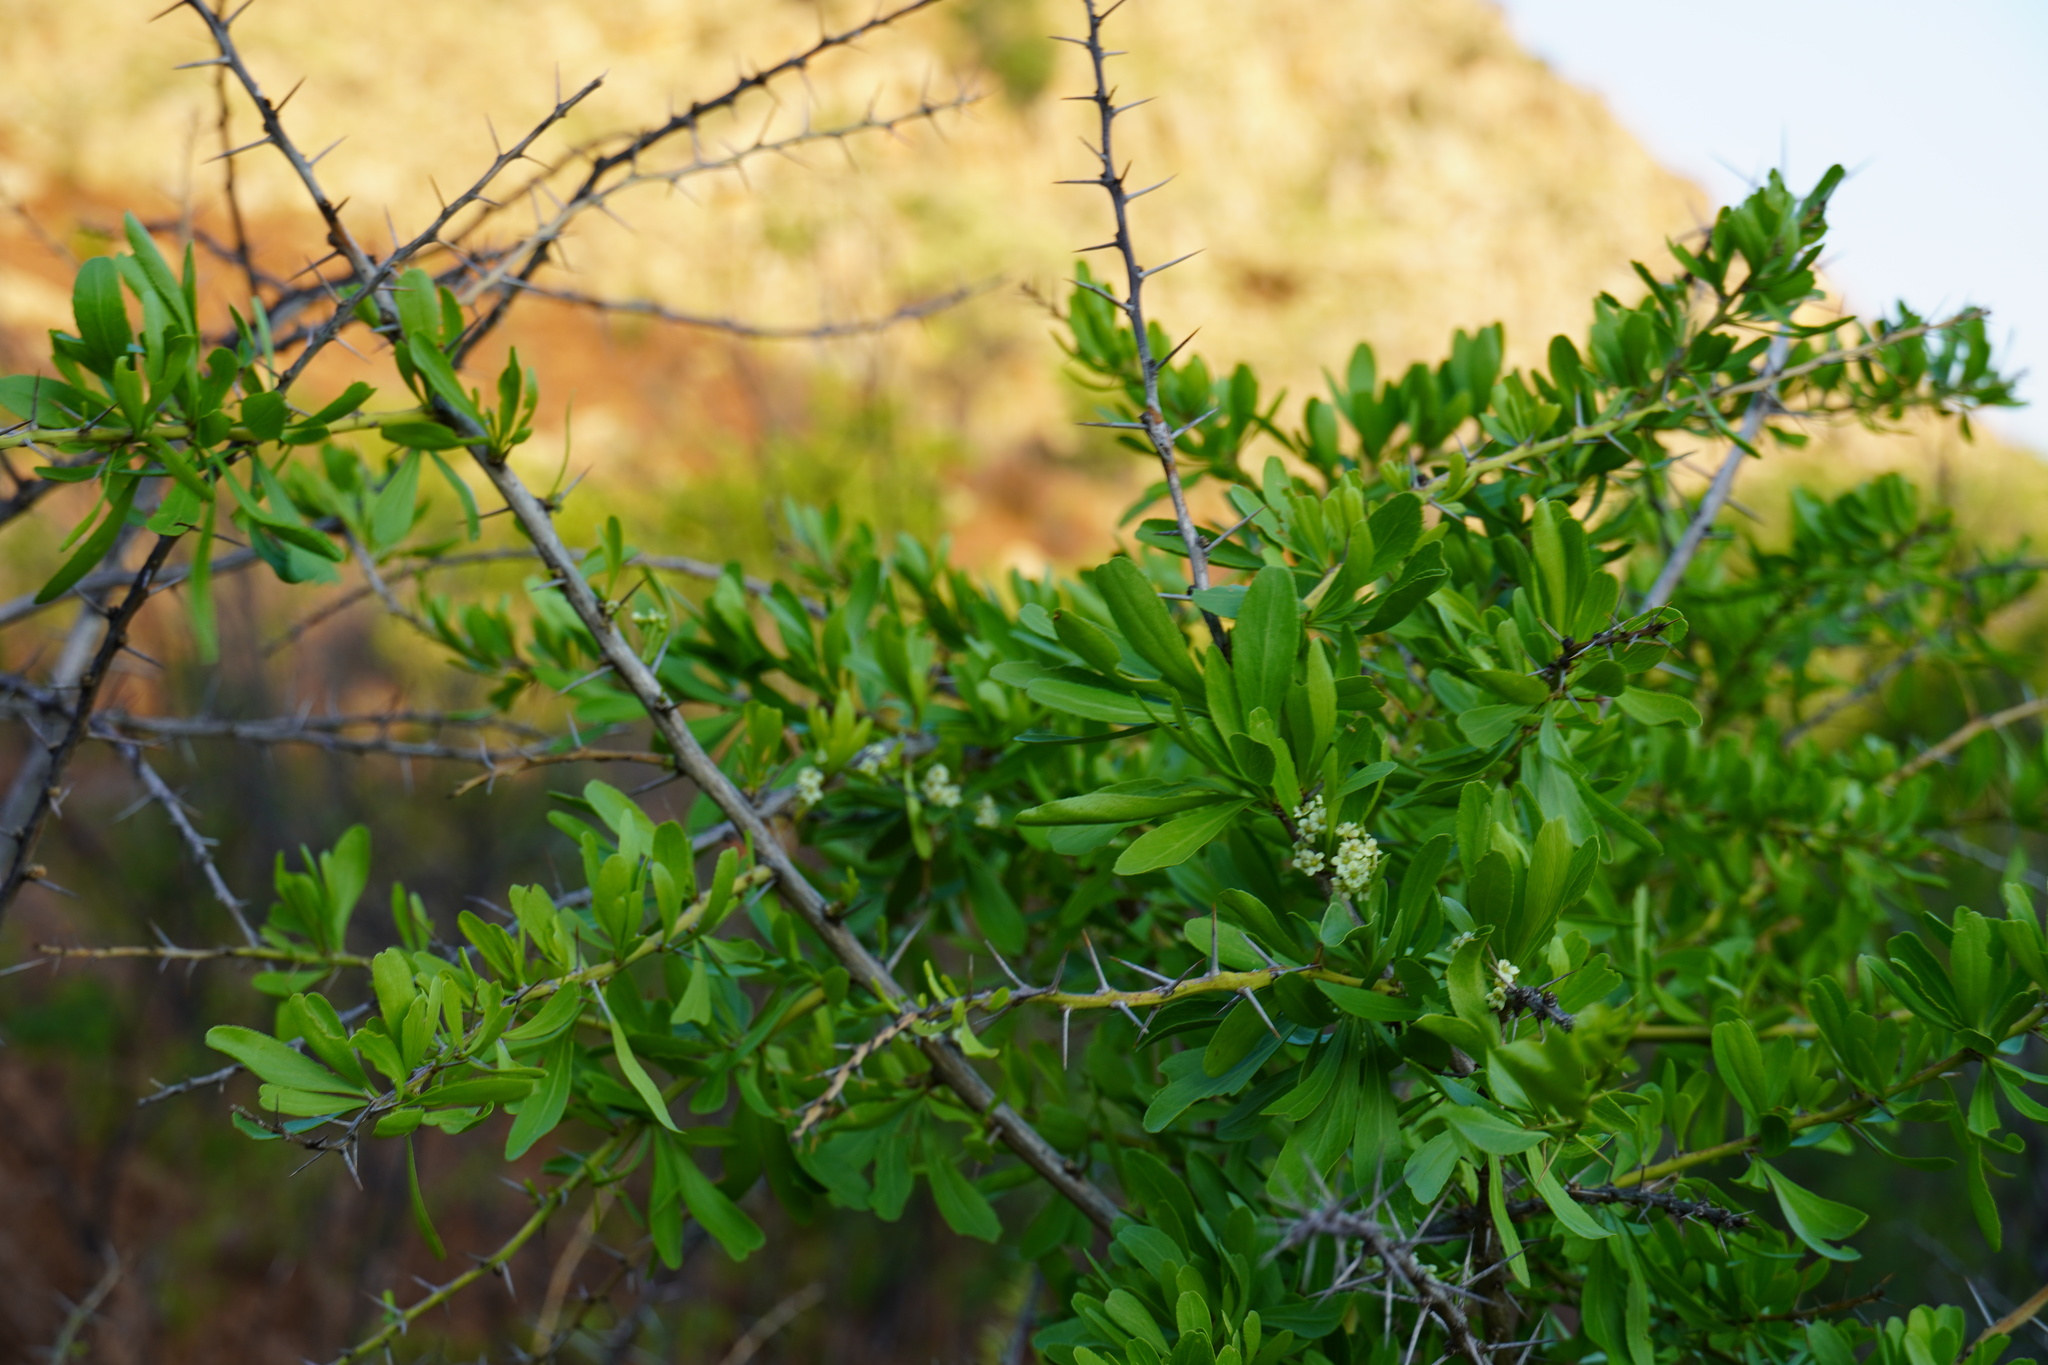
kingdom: Plantae
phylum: Tracheophyta
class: Magnoliopsida
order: Celastrales
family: Celastraceae
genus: Gymnosporia
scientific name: Gymnosporia buxifolia
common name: Common spike-thorn
